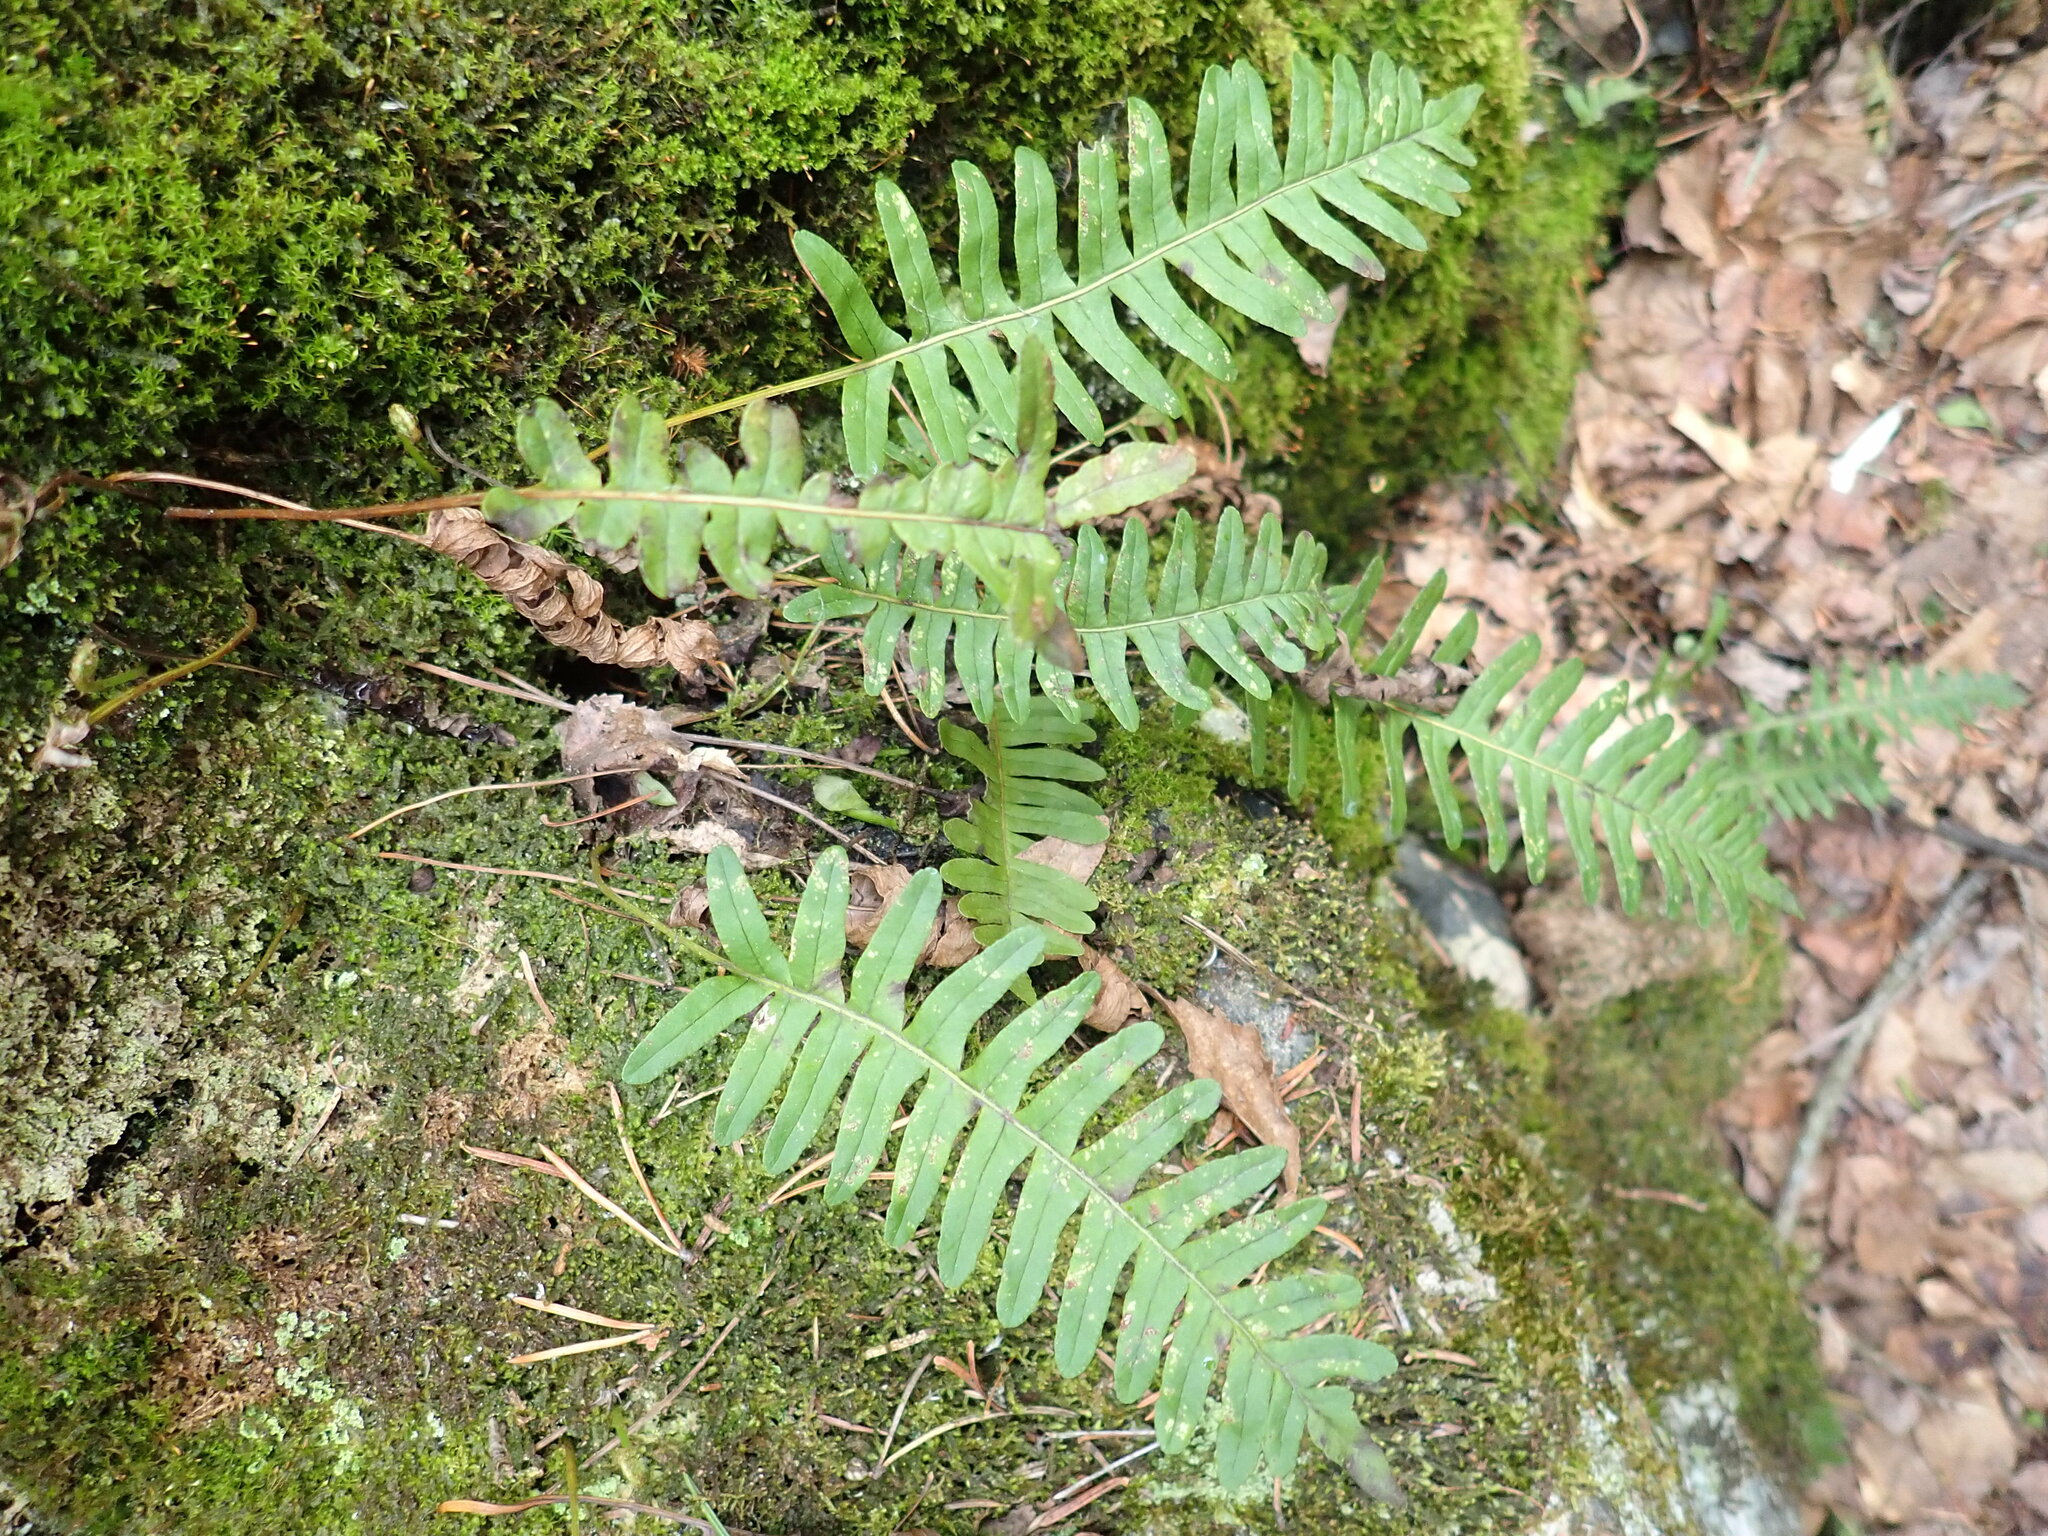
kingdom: Plantae
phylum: Tracheophyta
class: Polypodiopsida
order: Polypodiales
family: Polypodiaceae
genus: Polypodium
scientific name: Polypodium virginianum
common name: American wall fern
